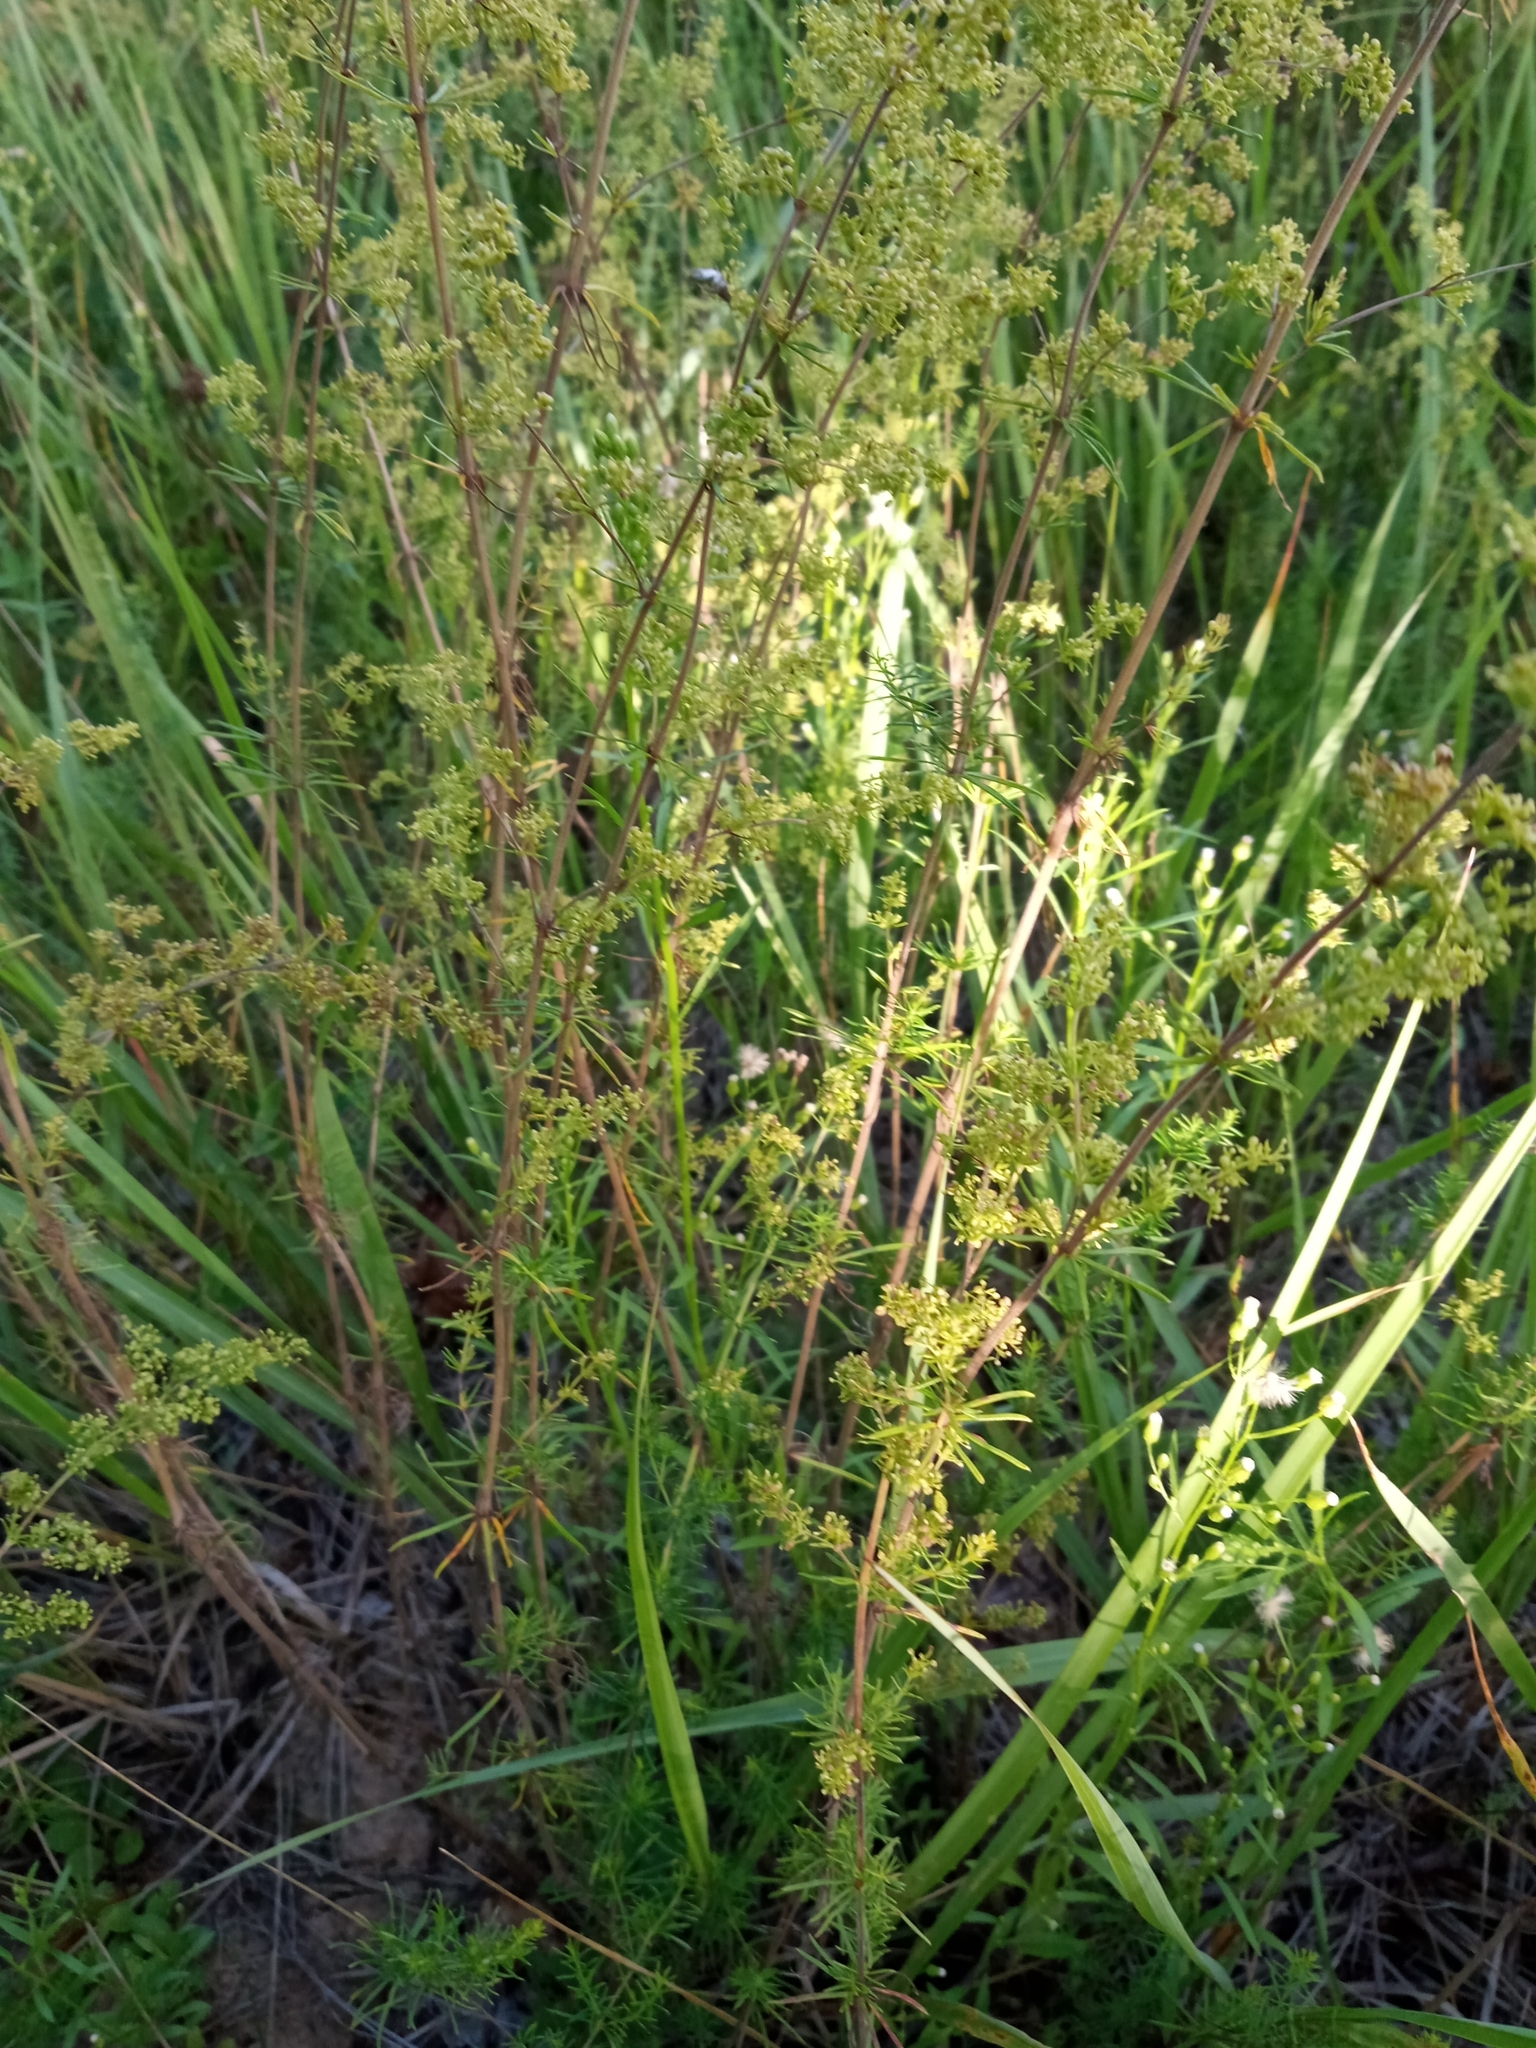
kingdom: Plantae
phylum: Tracheophyta
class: Magnoliopsida
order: Gentianales
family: Rubiaceae
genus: Galium
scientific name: Galium verum
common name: Lady's bedstraw
